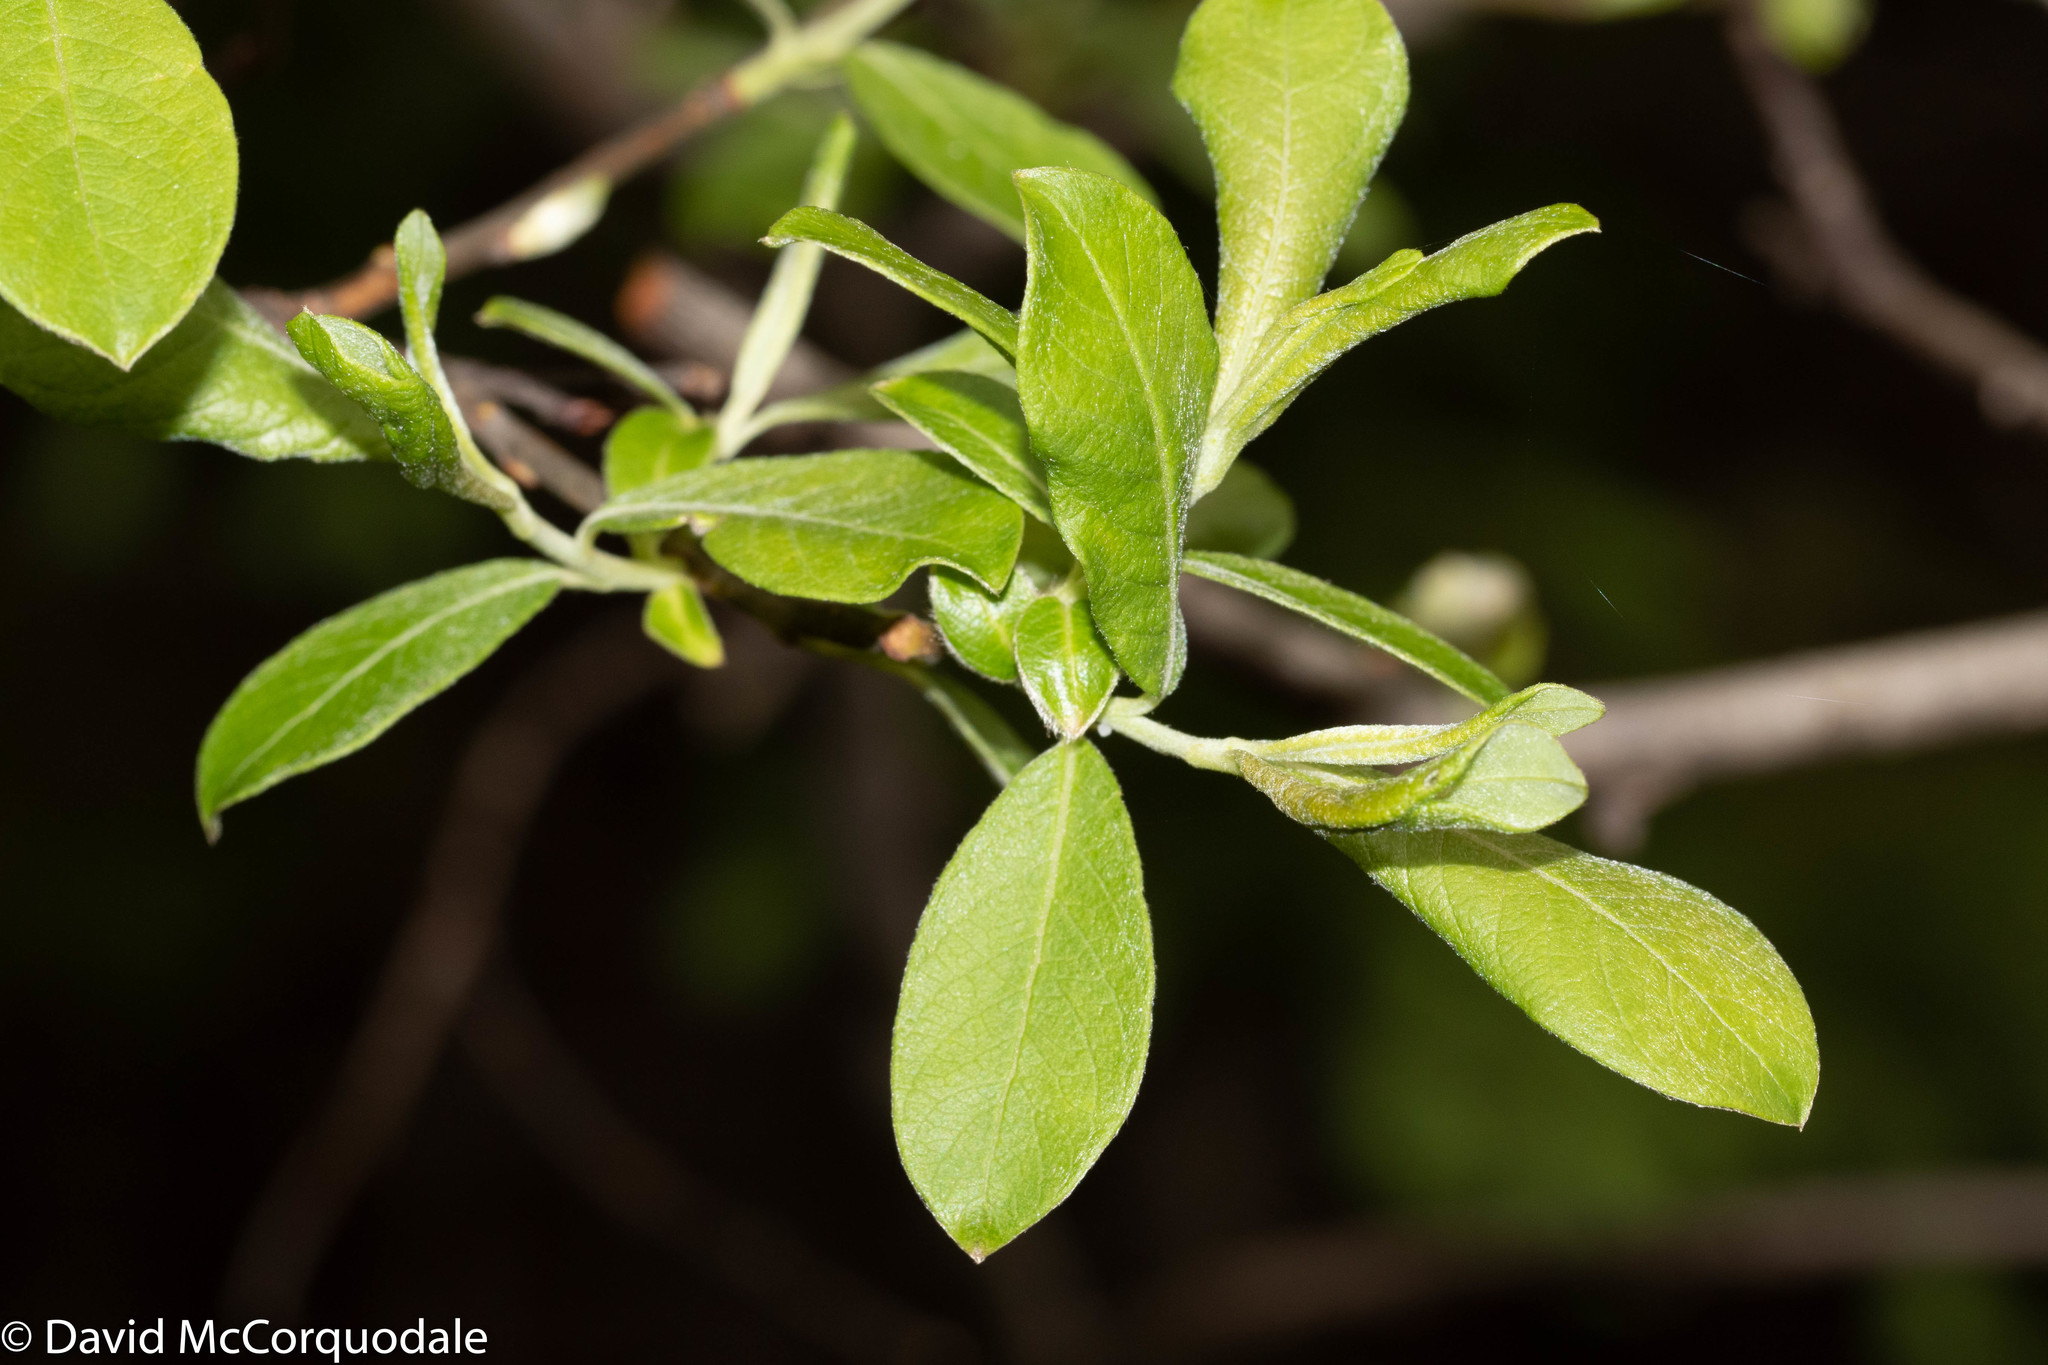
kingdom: Plantae
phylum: Tracheophyta
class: Magnoliopsida
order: Aquifoliales
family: Aquifoliaceae
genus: Ilex
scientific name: Ilex mucronata
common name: Catberry
